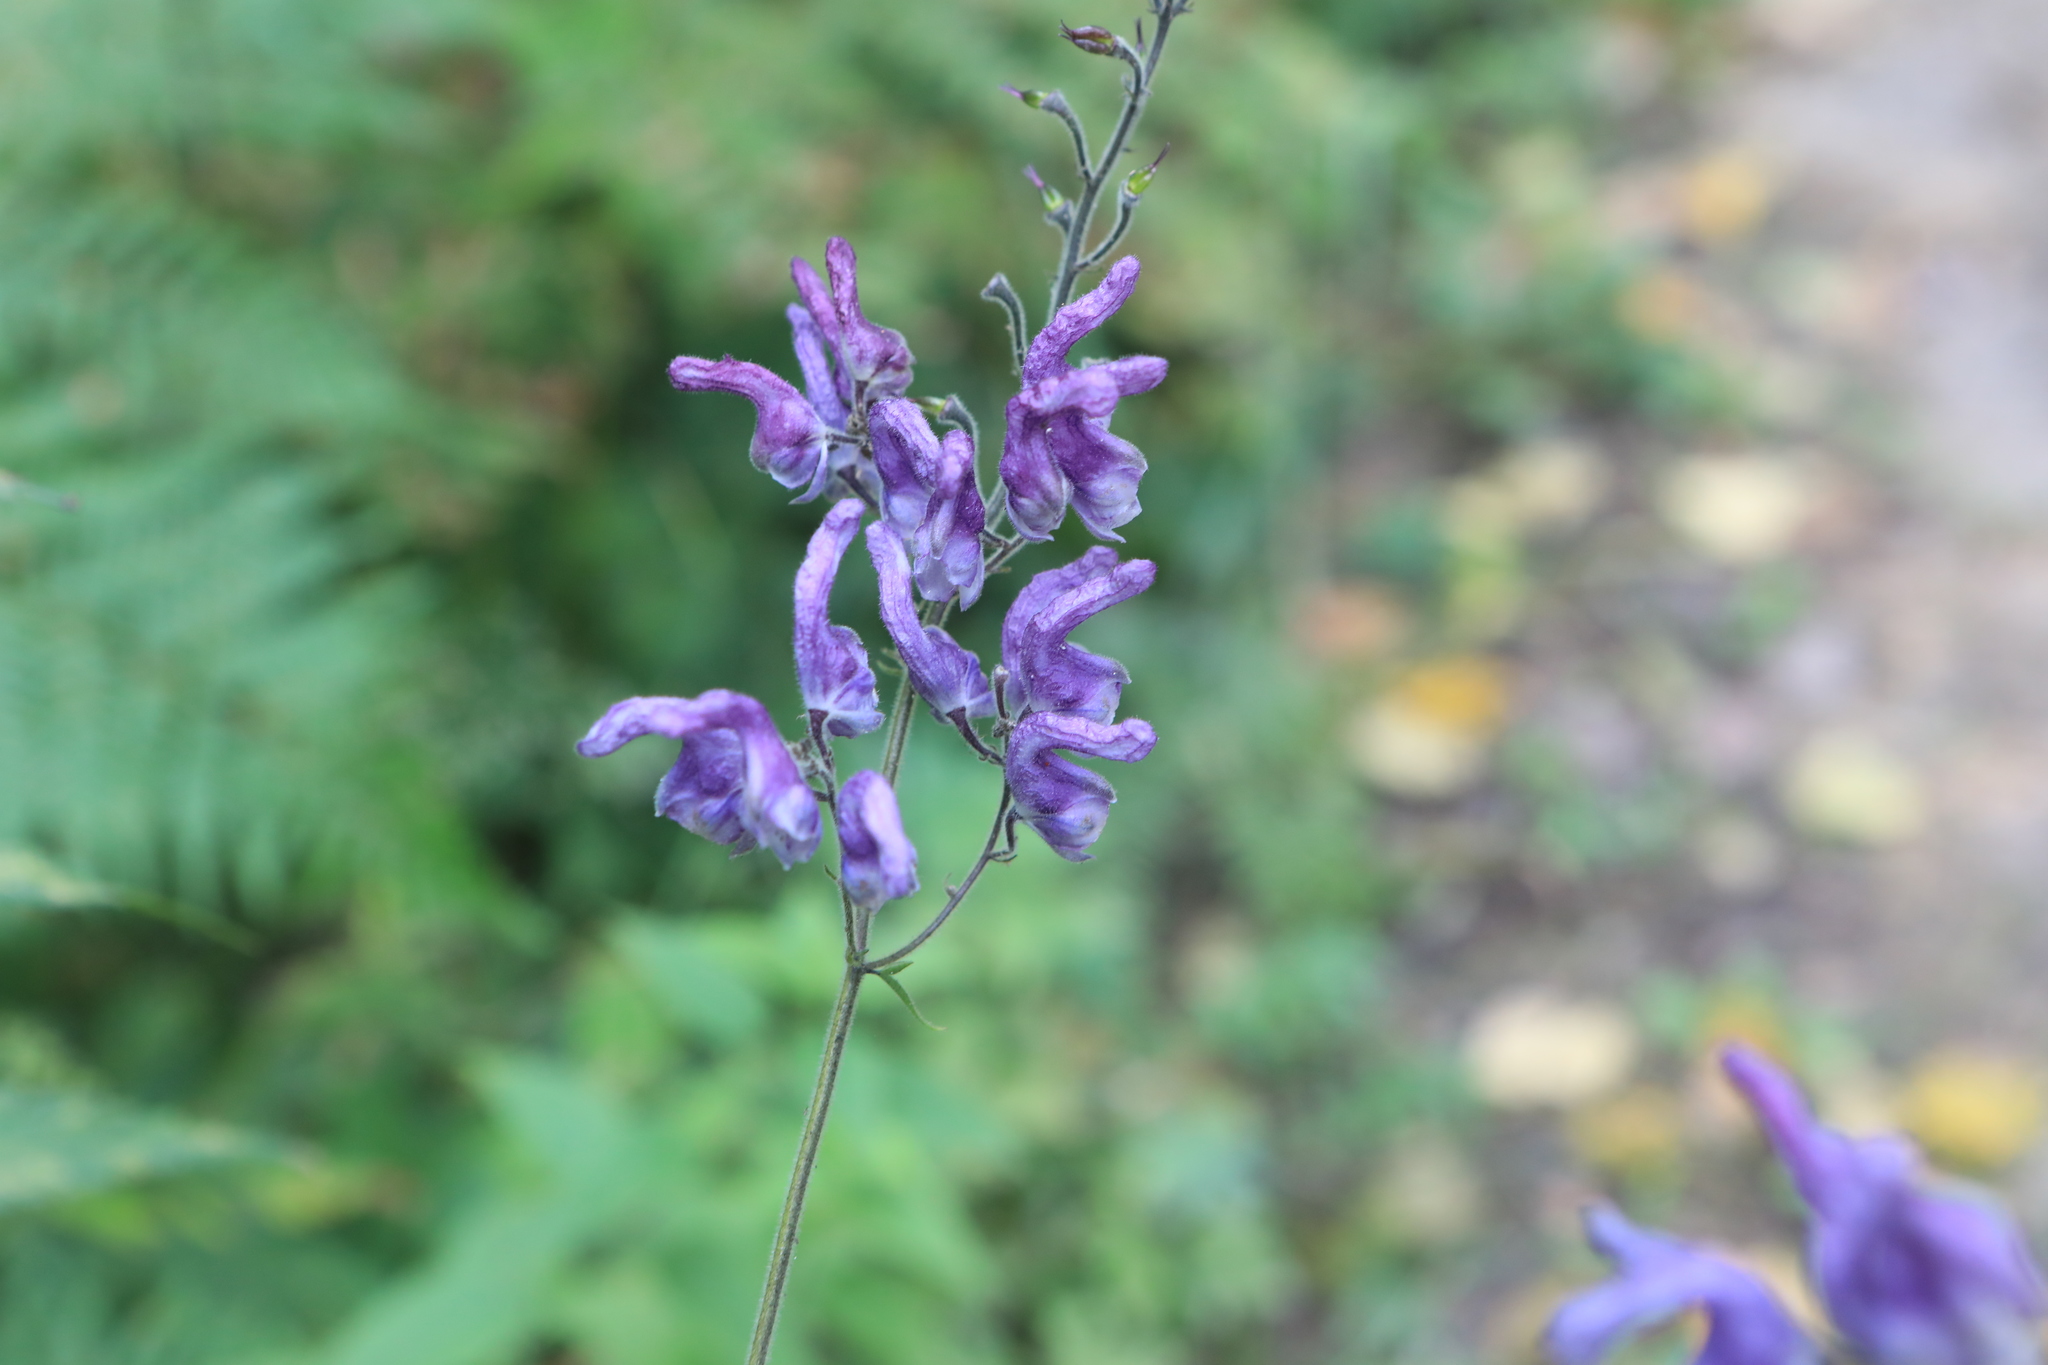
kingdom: Plantae
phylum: Tracheophyta
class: Magnoliopsida
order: Ranunculales
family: Ranunculaceae
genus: Aconitum
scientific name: Aconitum septentrionale
